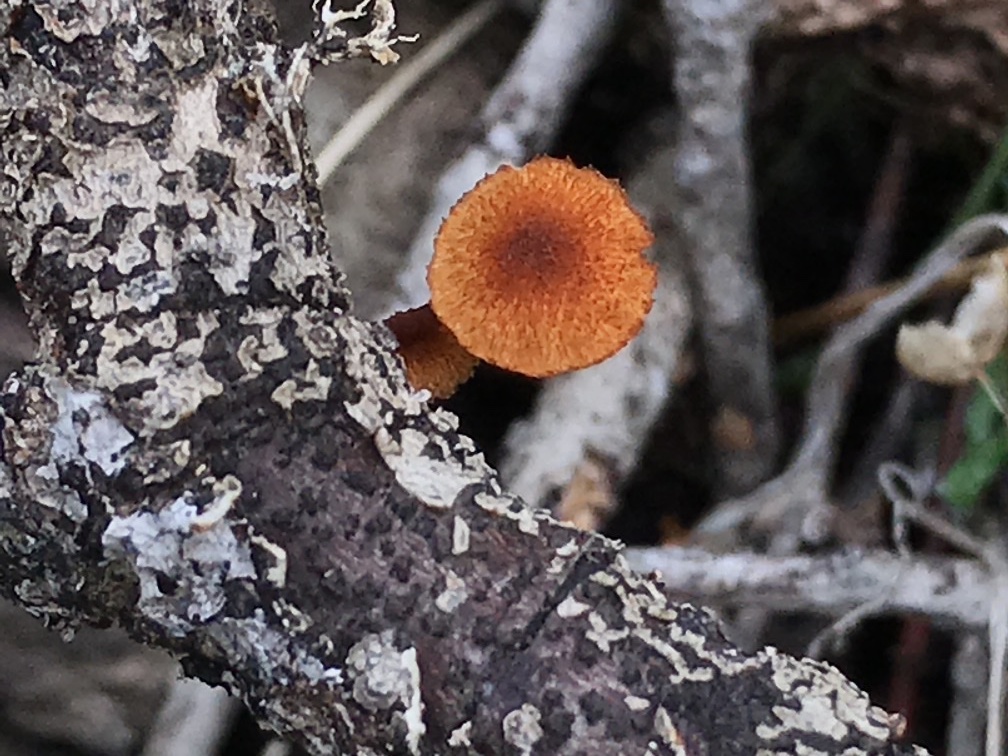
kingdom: Fungi
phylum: Basidiomycota
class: Agaricomycetes
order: Agaricales
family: Tubariaceae
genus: Phaeomarasmius
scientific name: Phaeomarasmius erinaceus
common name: Hedgehog scalycap
